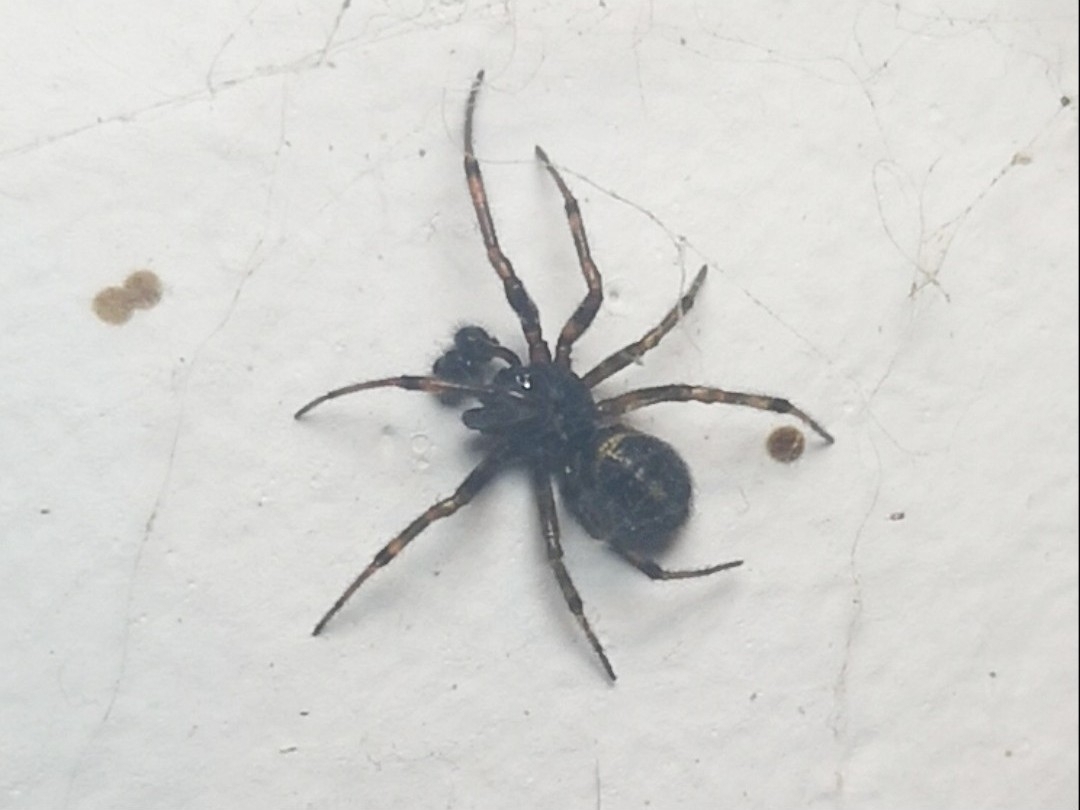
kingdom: Animalia
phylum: Arthropoda
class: Arachnida
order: Araneae
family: Theridiidae
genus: Steatoda
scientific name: Steatoda bipunctata
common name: False widow
